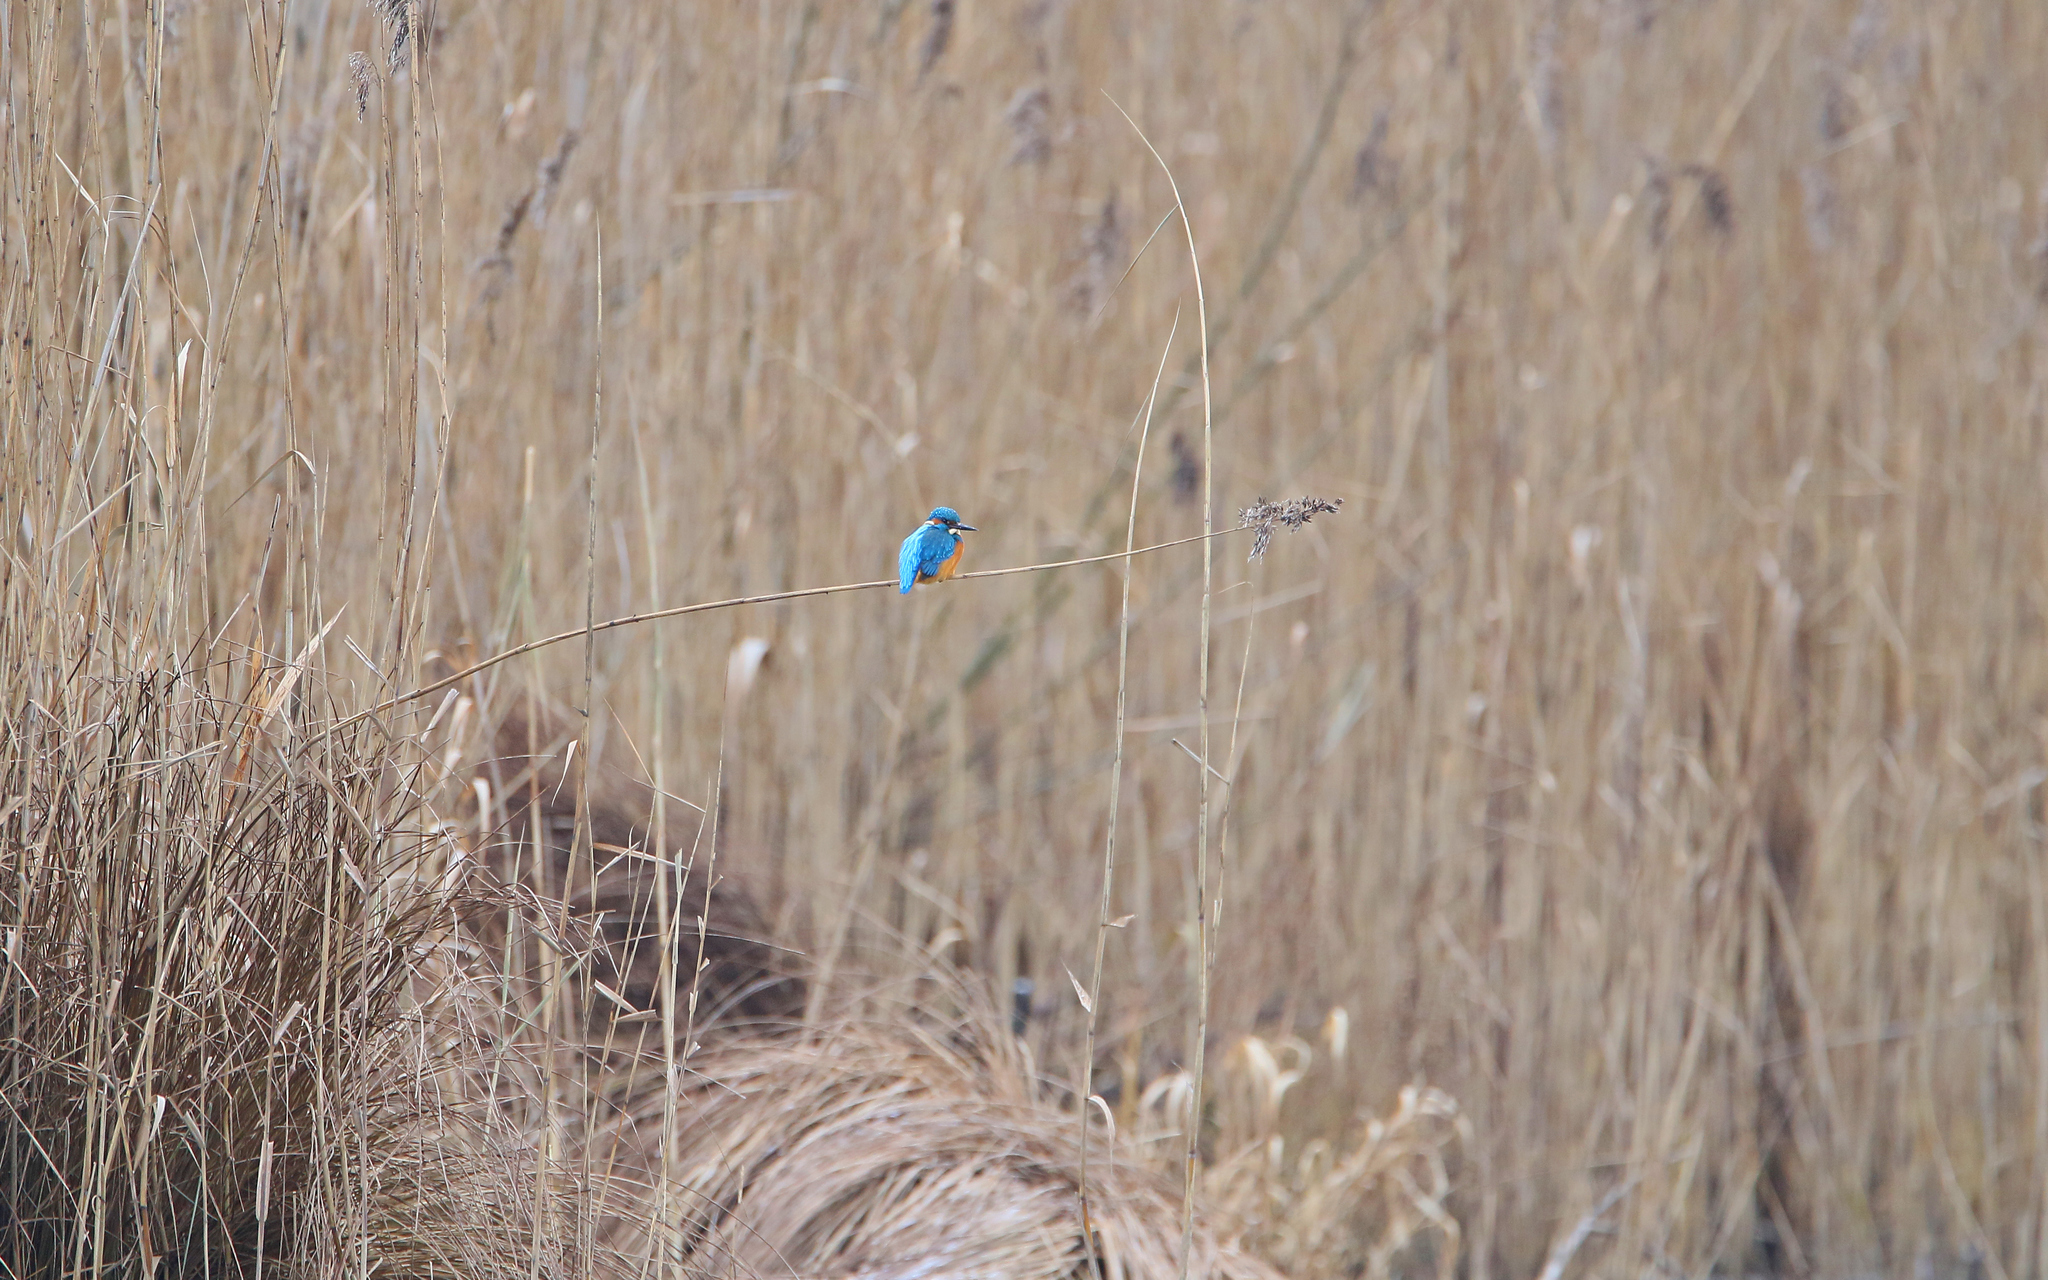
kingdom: Animalia
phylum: Chordata
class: Aves
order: Coraciiformes
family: Alcedinidae
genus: Alcedo
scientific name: Alcedo atthis
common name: Common kingfisher
